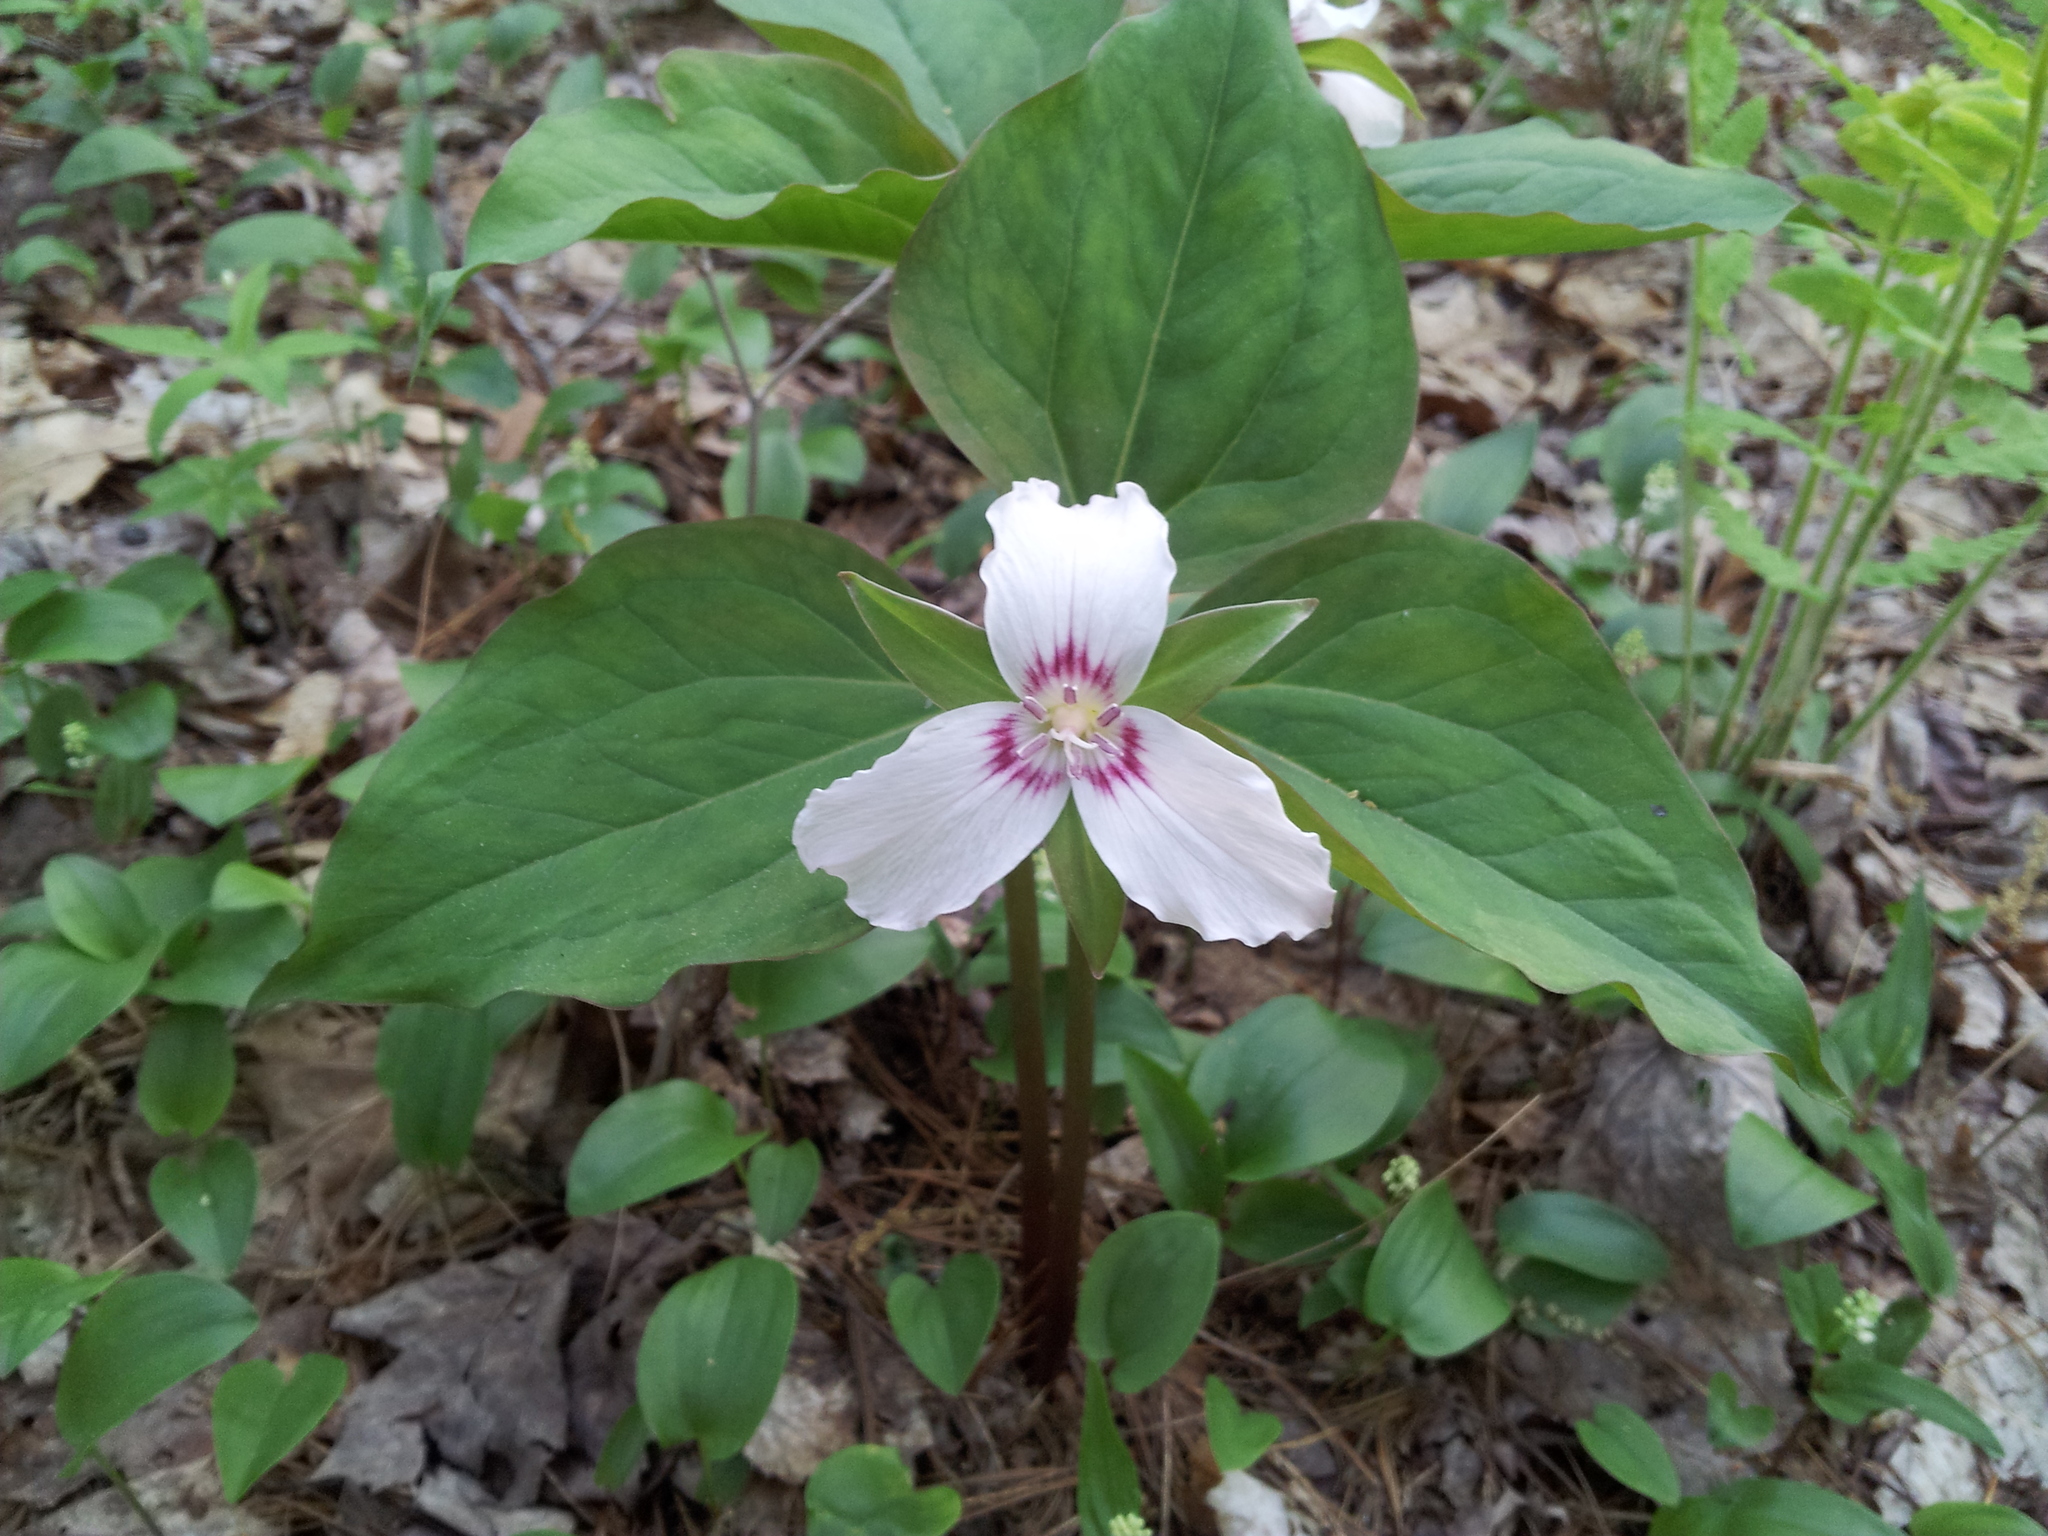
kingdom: Plantae
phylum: Tracheophyta
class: Liliopsida
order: Liliales
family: Melanthiaceae
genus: Trillium
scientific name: Trillium undulatum
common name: Paint trillium
